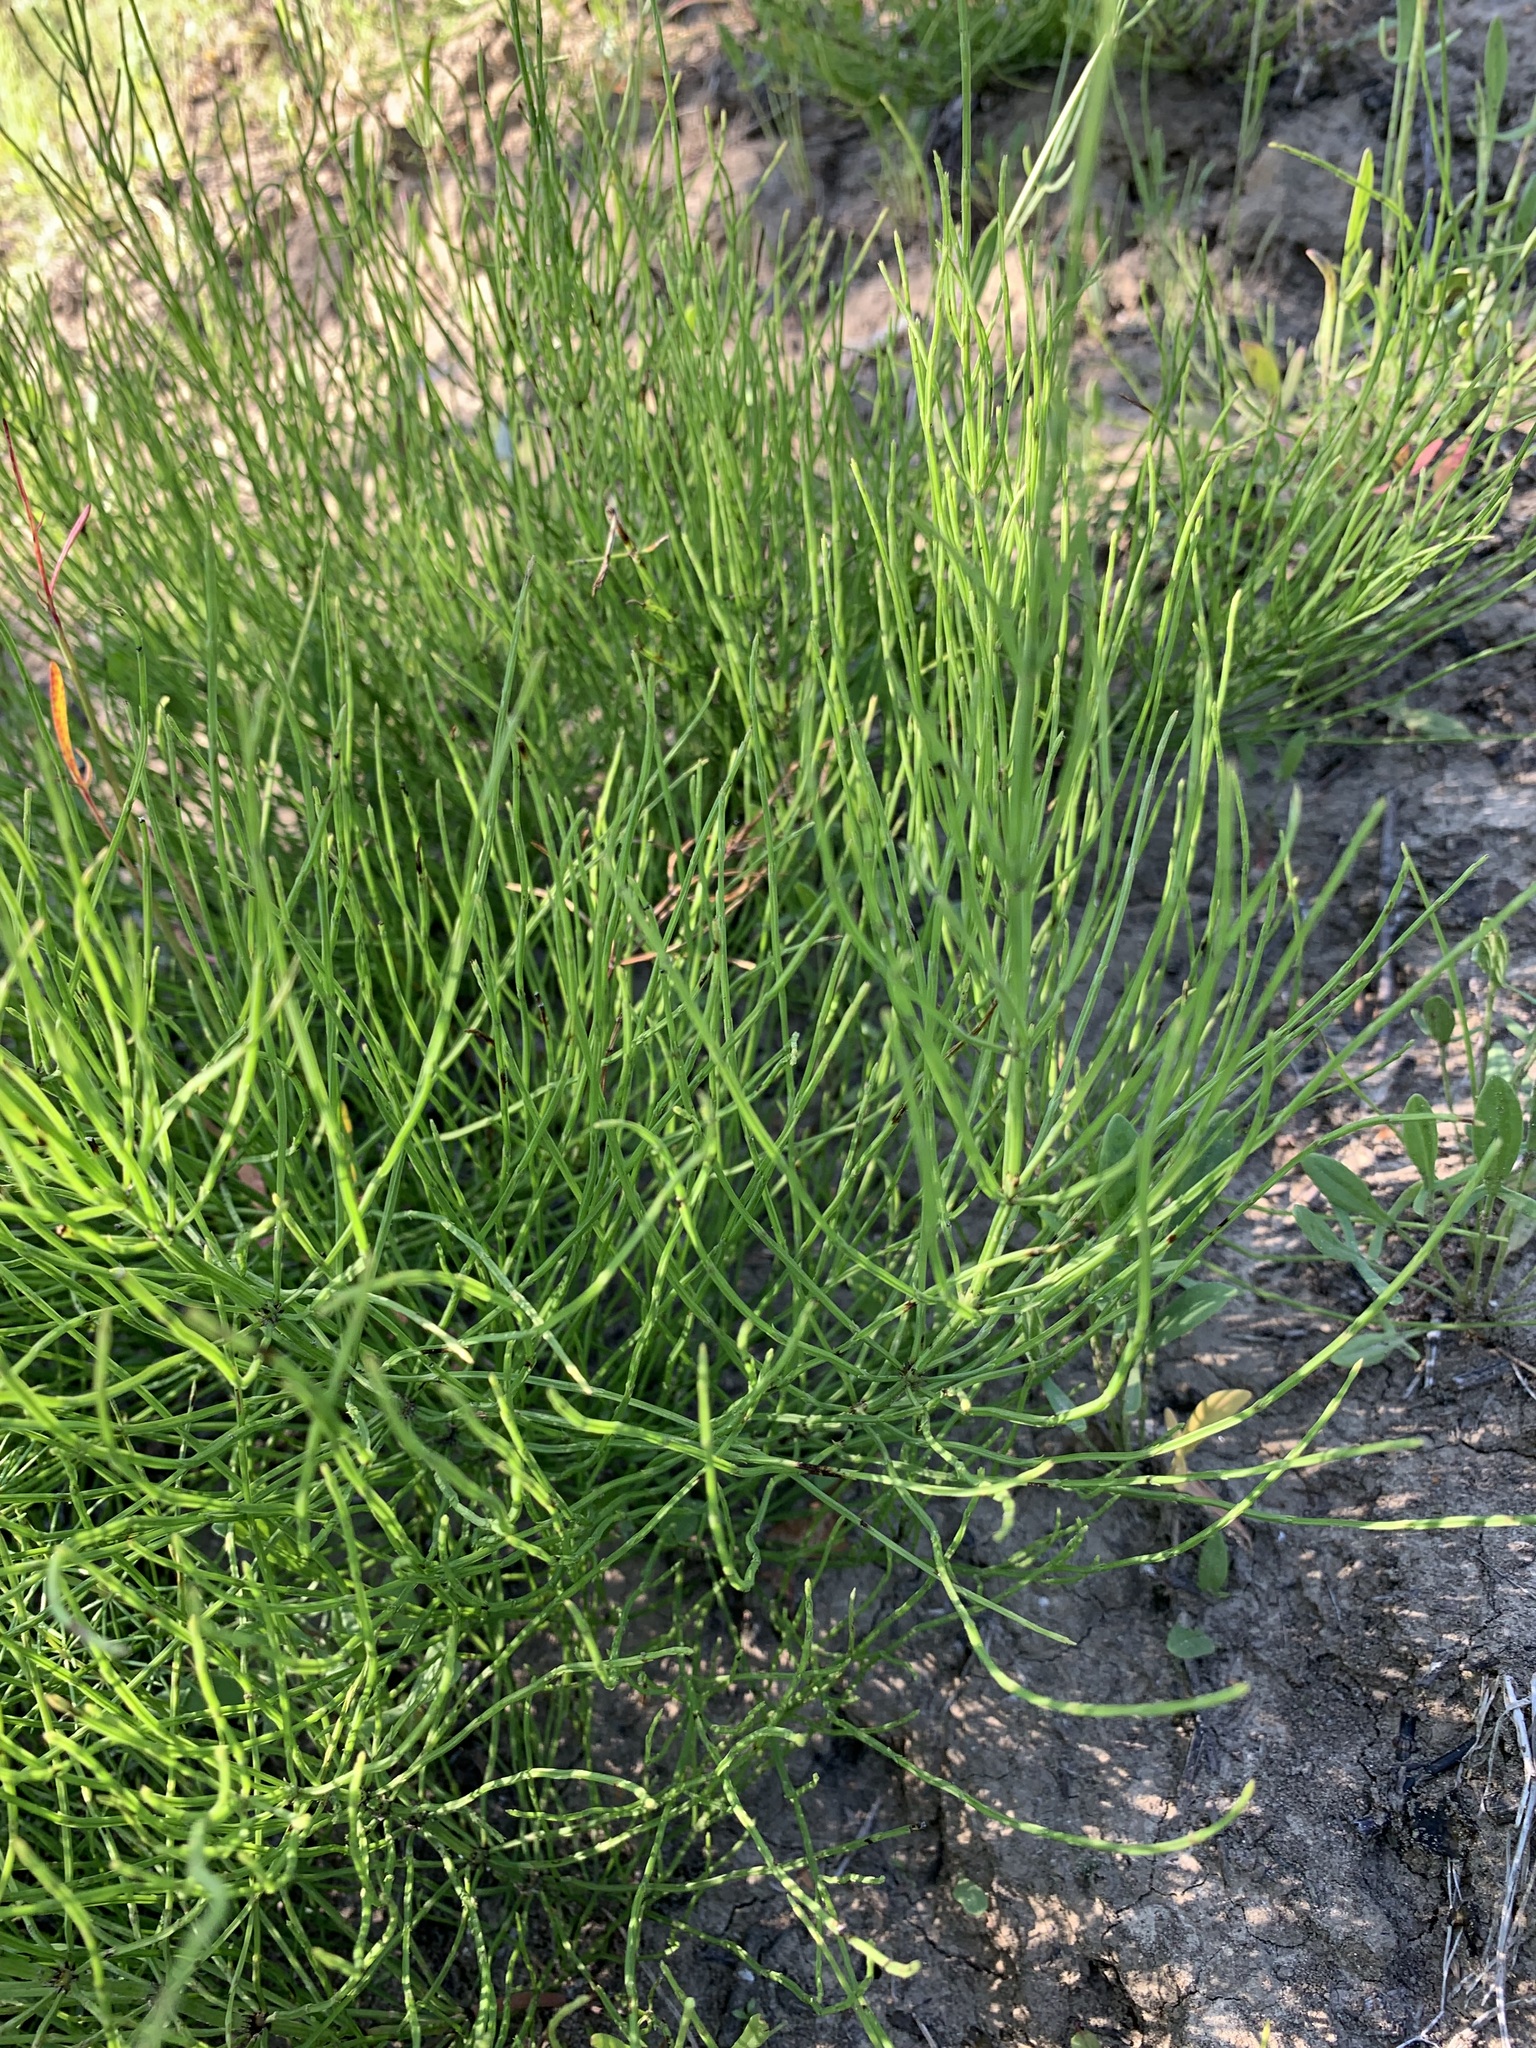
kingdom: Plantae
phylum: Tracheophyta
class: Polypodiopsida
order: Equisetales
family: Equisetaceae
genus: Equisetum
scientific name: Equisetum arvense
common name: Field horsetail
